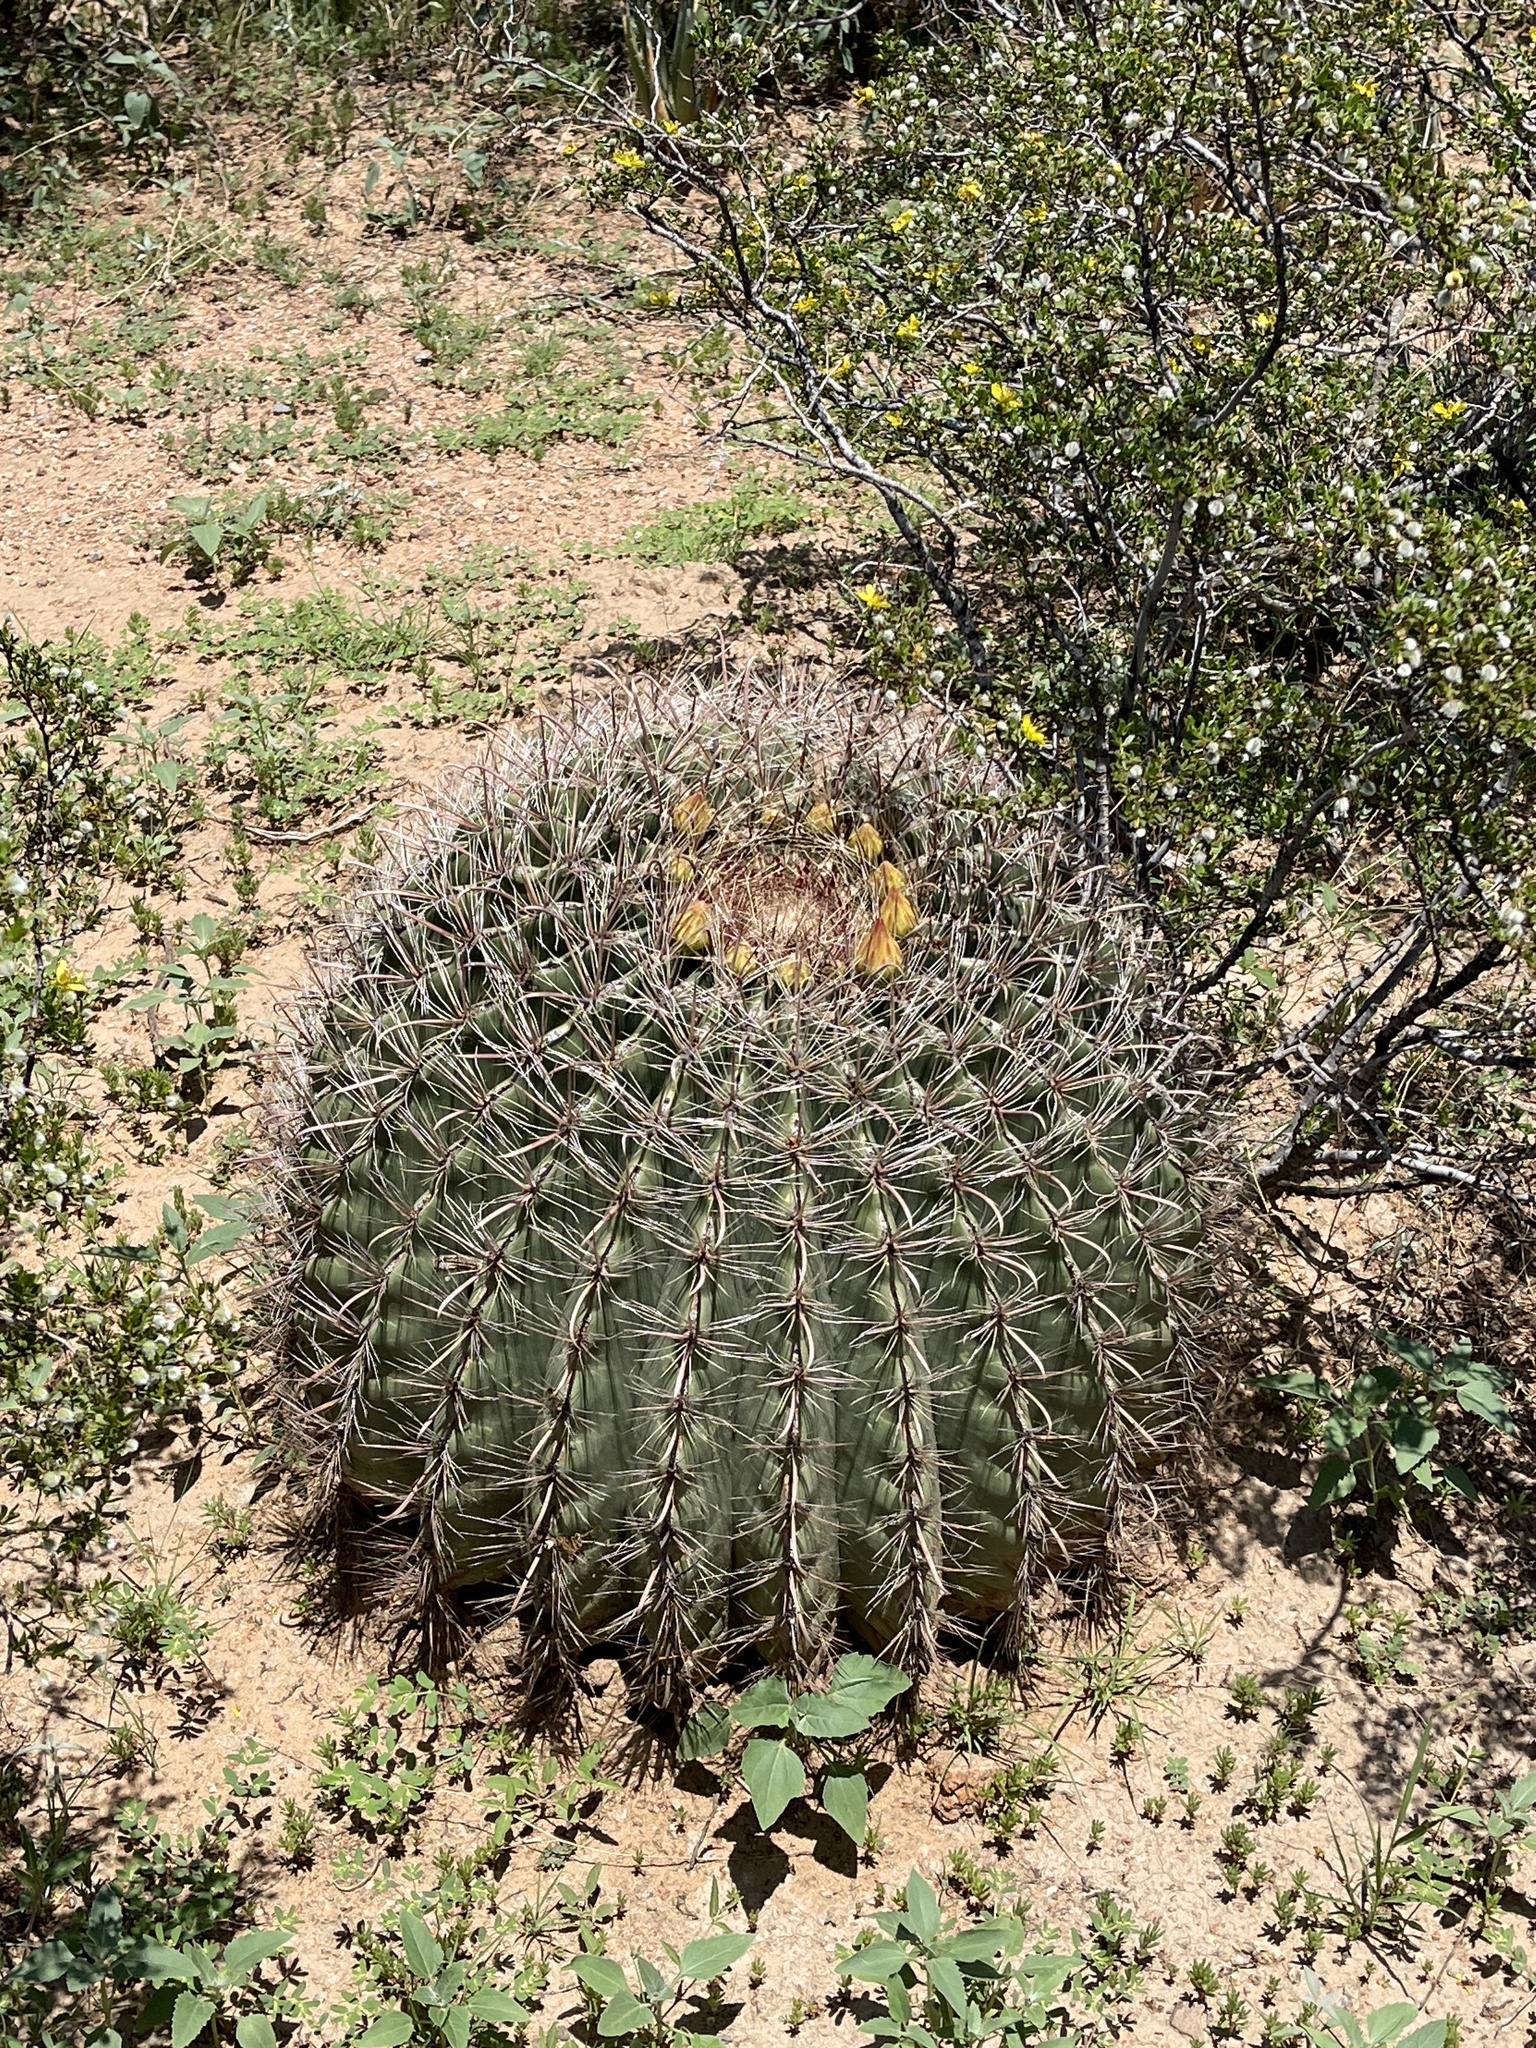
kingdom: Plantae
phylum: Tracheophyta
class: Magnoliopsida
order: Caryophyllales
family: Cactaceae
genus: Ferocactus
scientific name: Ferocactus wislizeni
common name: Candy barrel cactus
